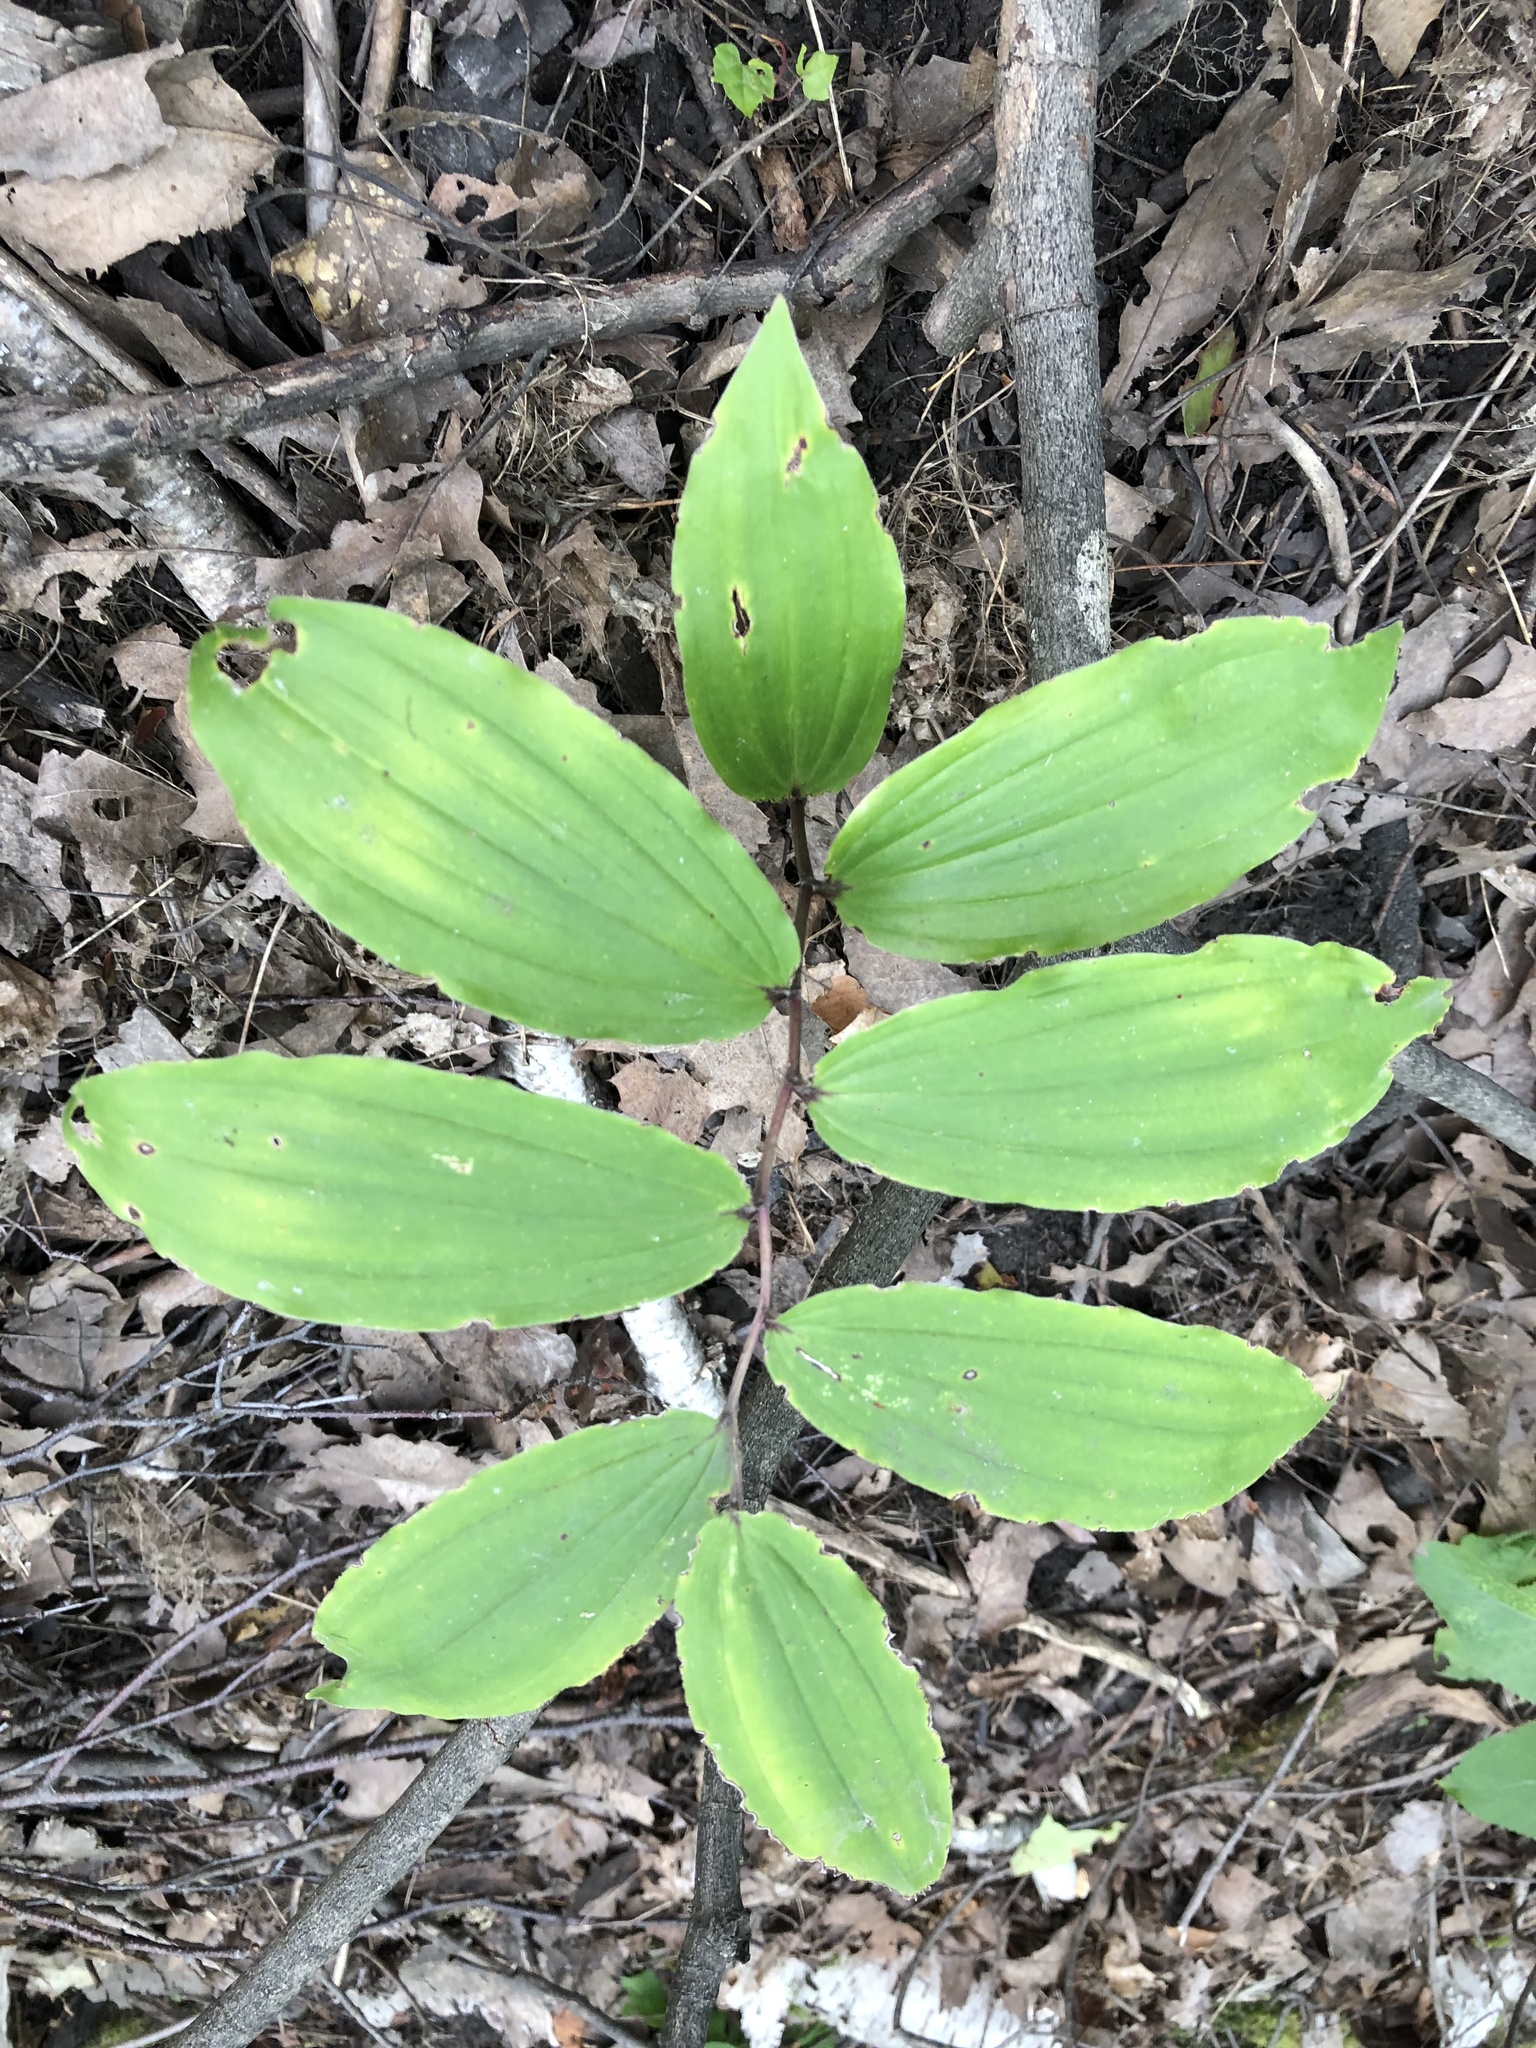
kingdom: Plantae
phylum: Tracheophyta
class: Liliopsida
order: Asparagales
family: Asparagaceae
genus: Maianthemum
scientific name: Maianthemum racemosum
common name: False spikenard
